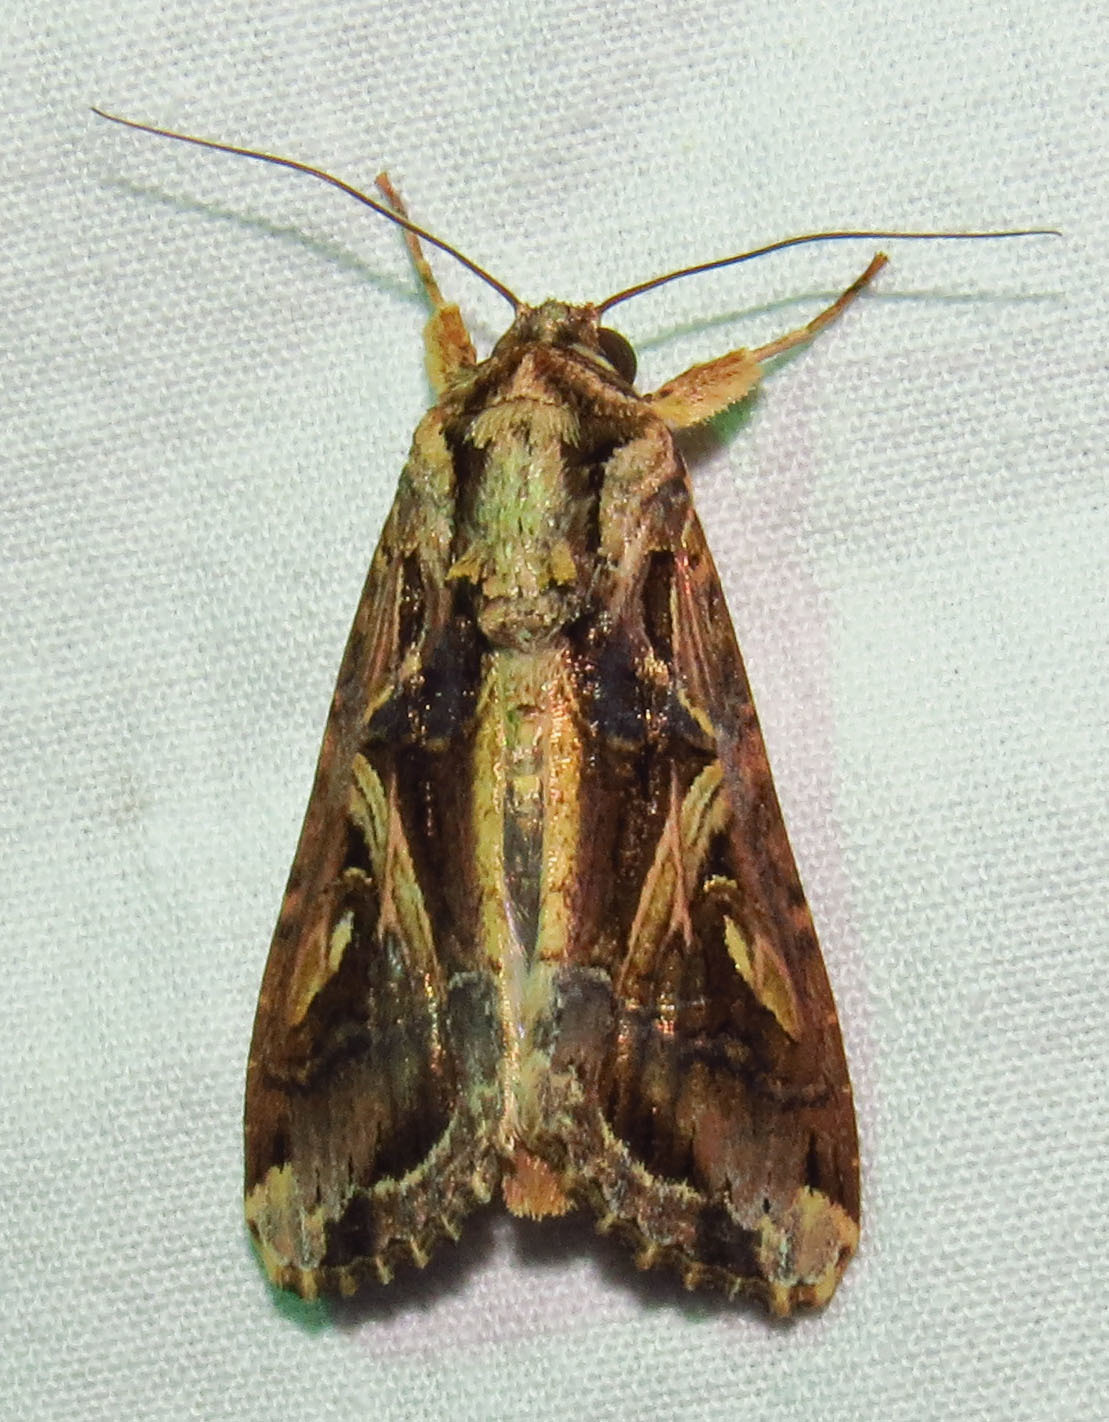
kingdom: Animalia
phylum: Arthropoda
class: Insecta
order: Lepidoptera
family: Noctuidae
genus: Spodoptera
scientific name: Spodoptera dolichos
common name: Sweetpotato armyworm
